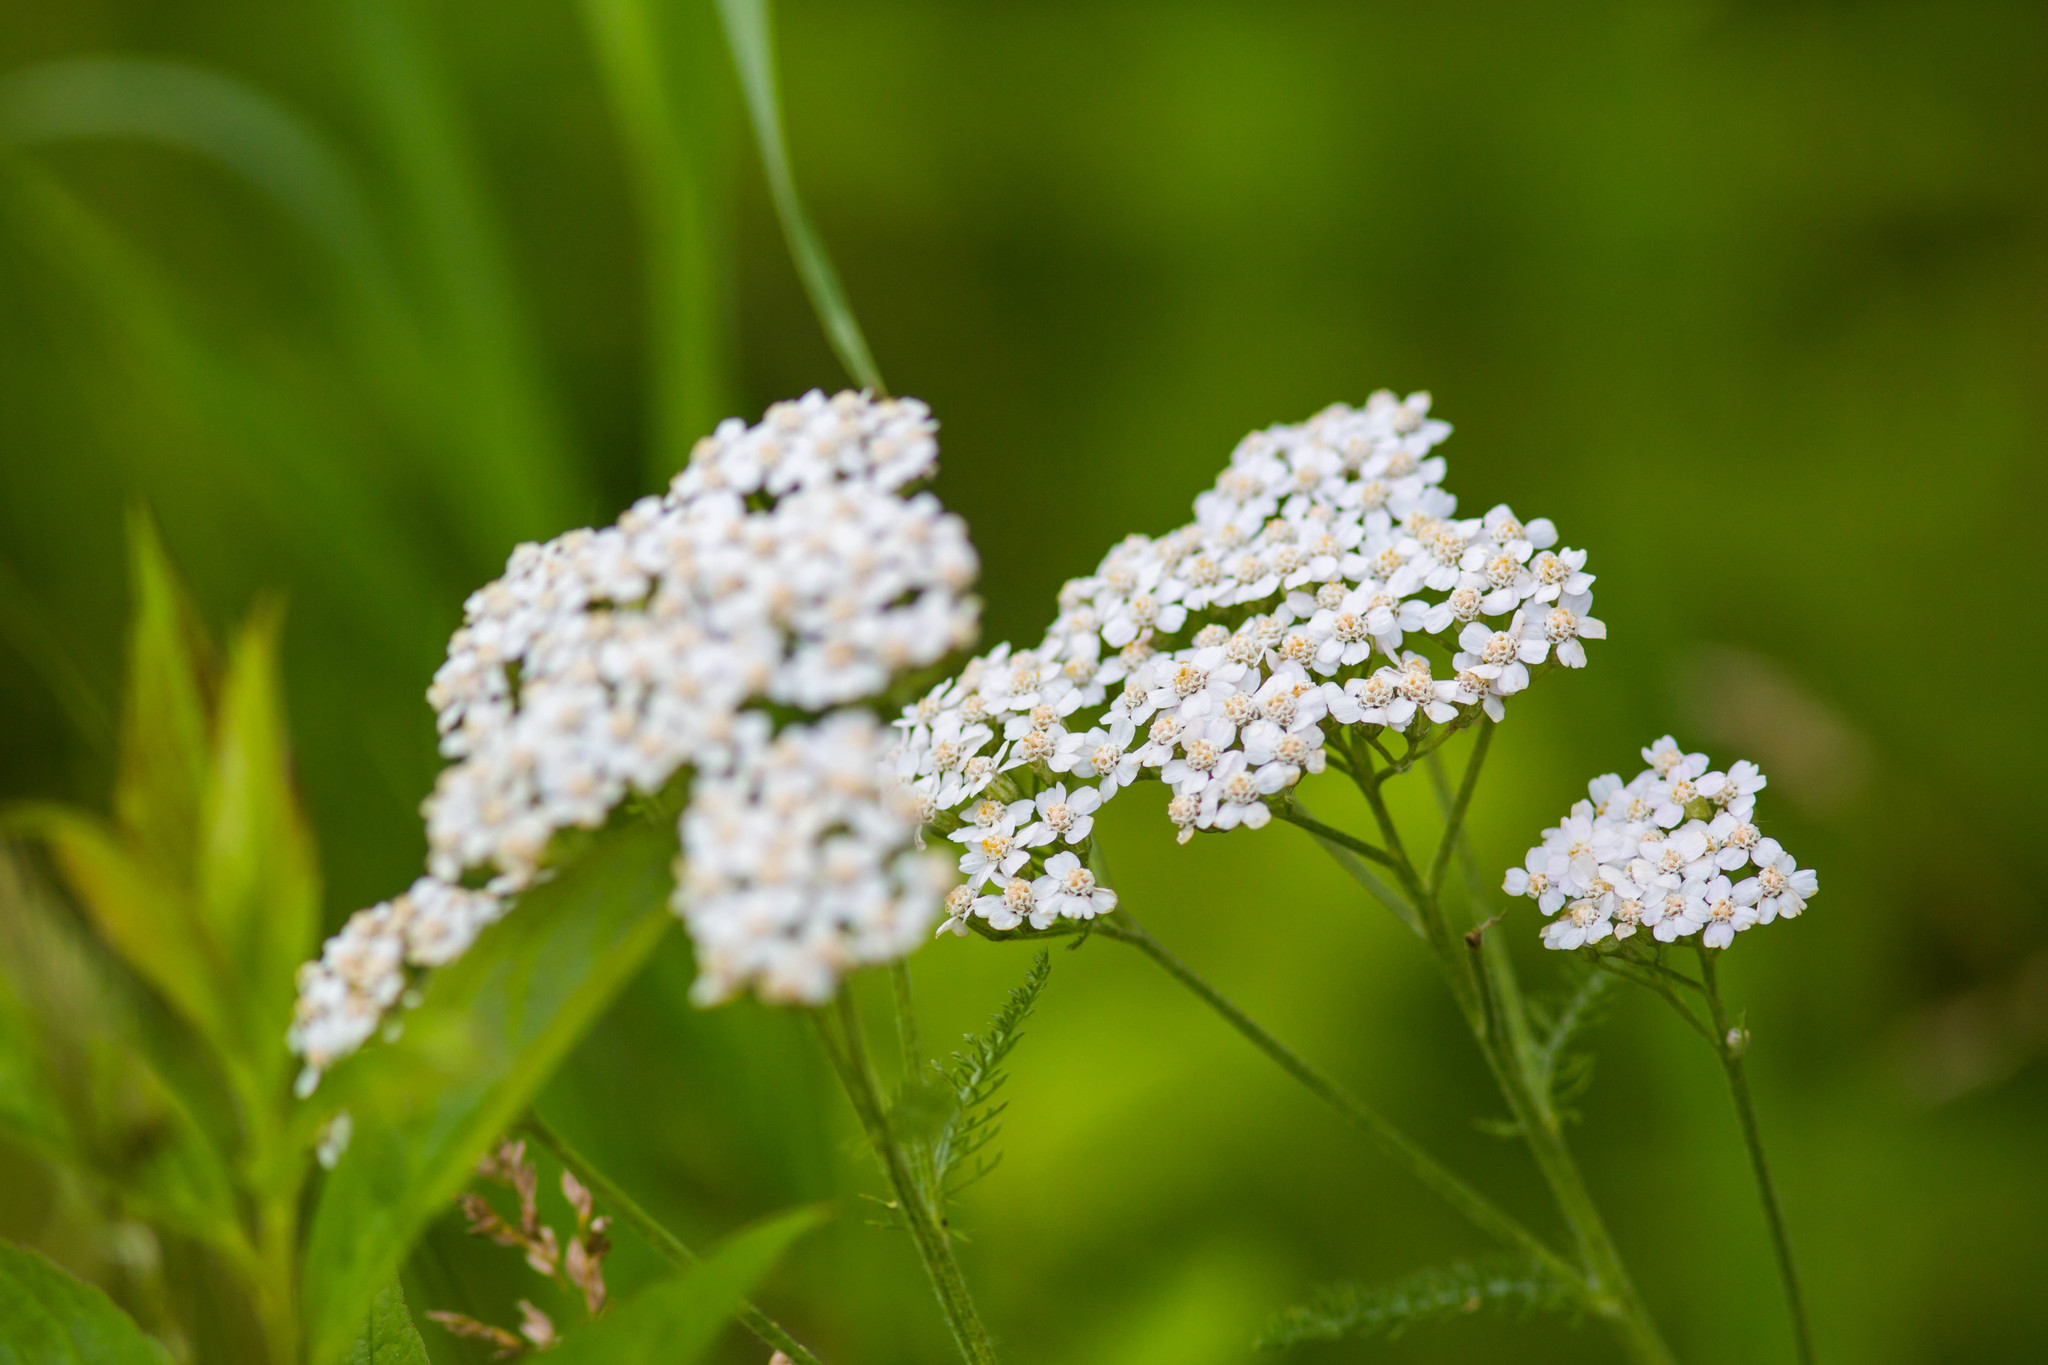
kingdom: Plantae
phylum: Tracheophyta
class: Magnoliopsida
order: Asterales
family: Asteraceae
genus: Achillea
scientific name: Achillea millefolium
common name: Yarrow
